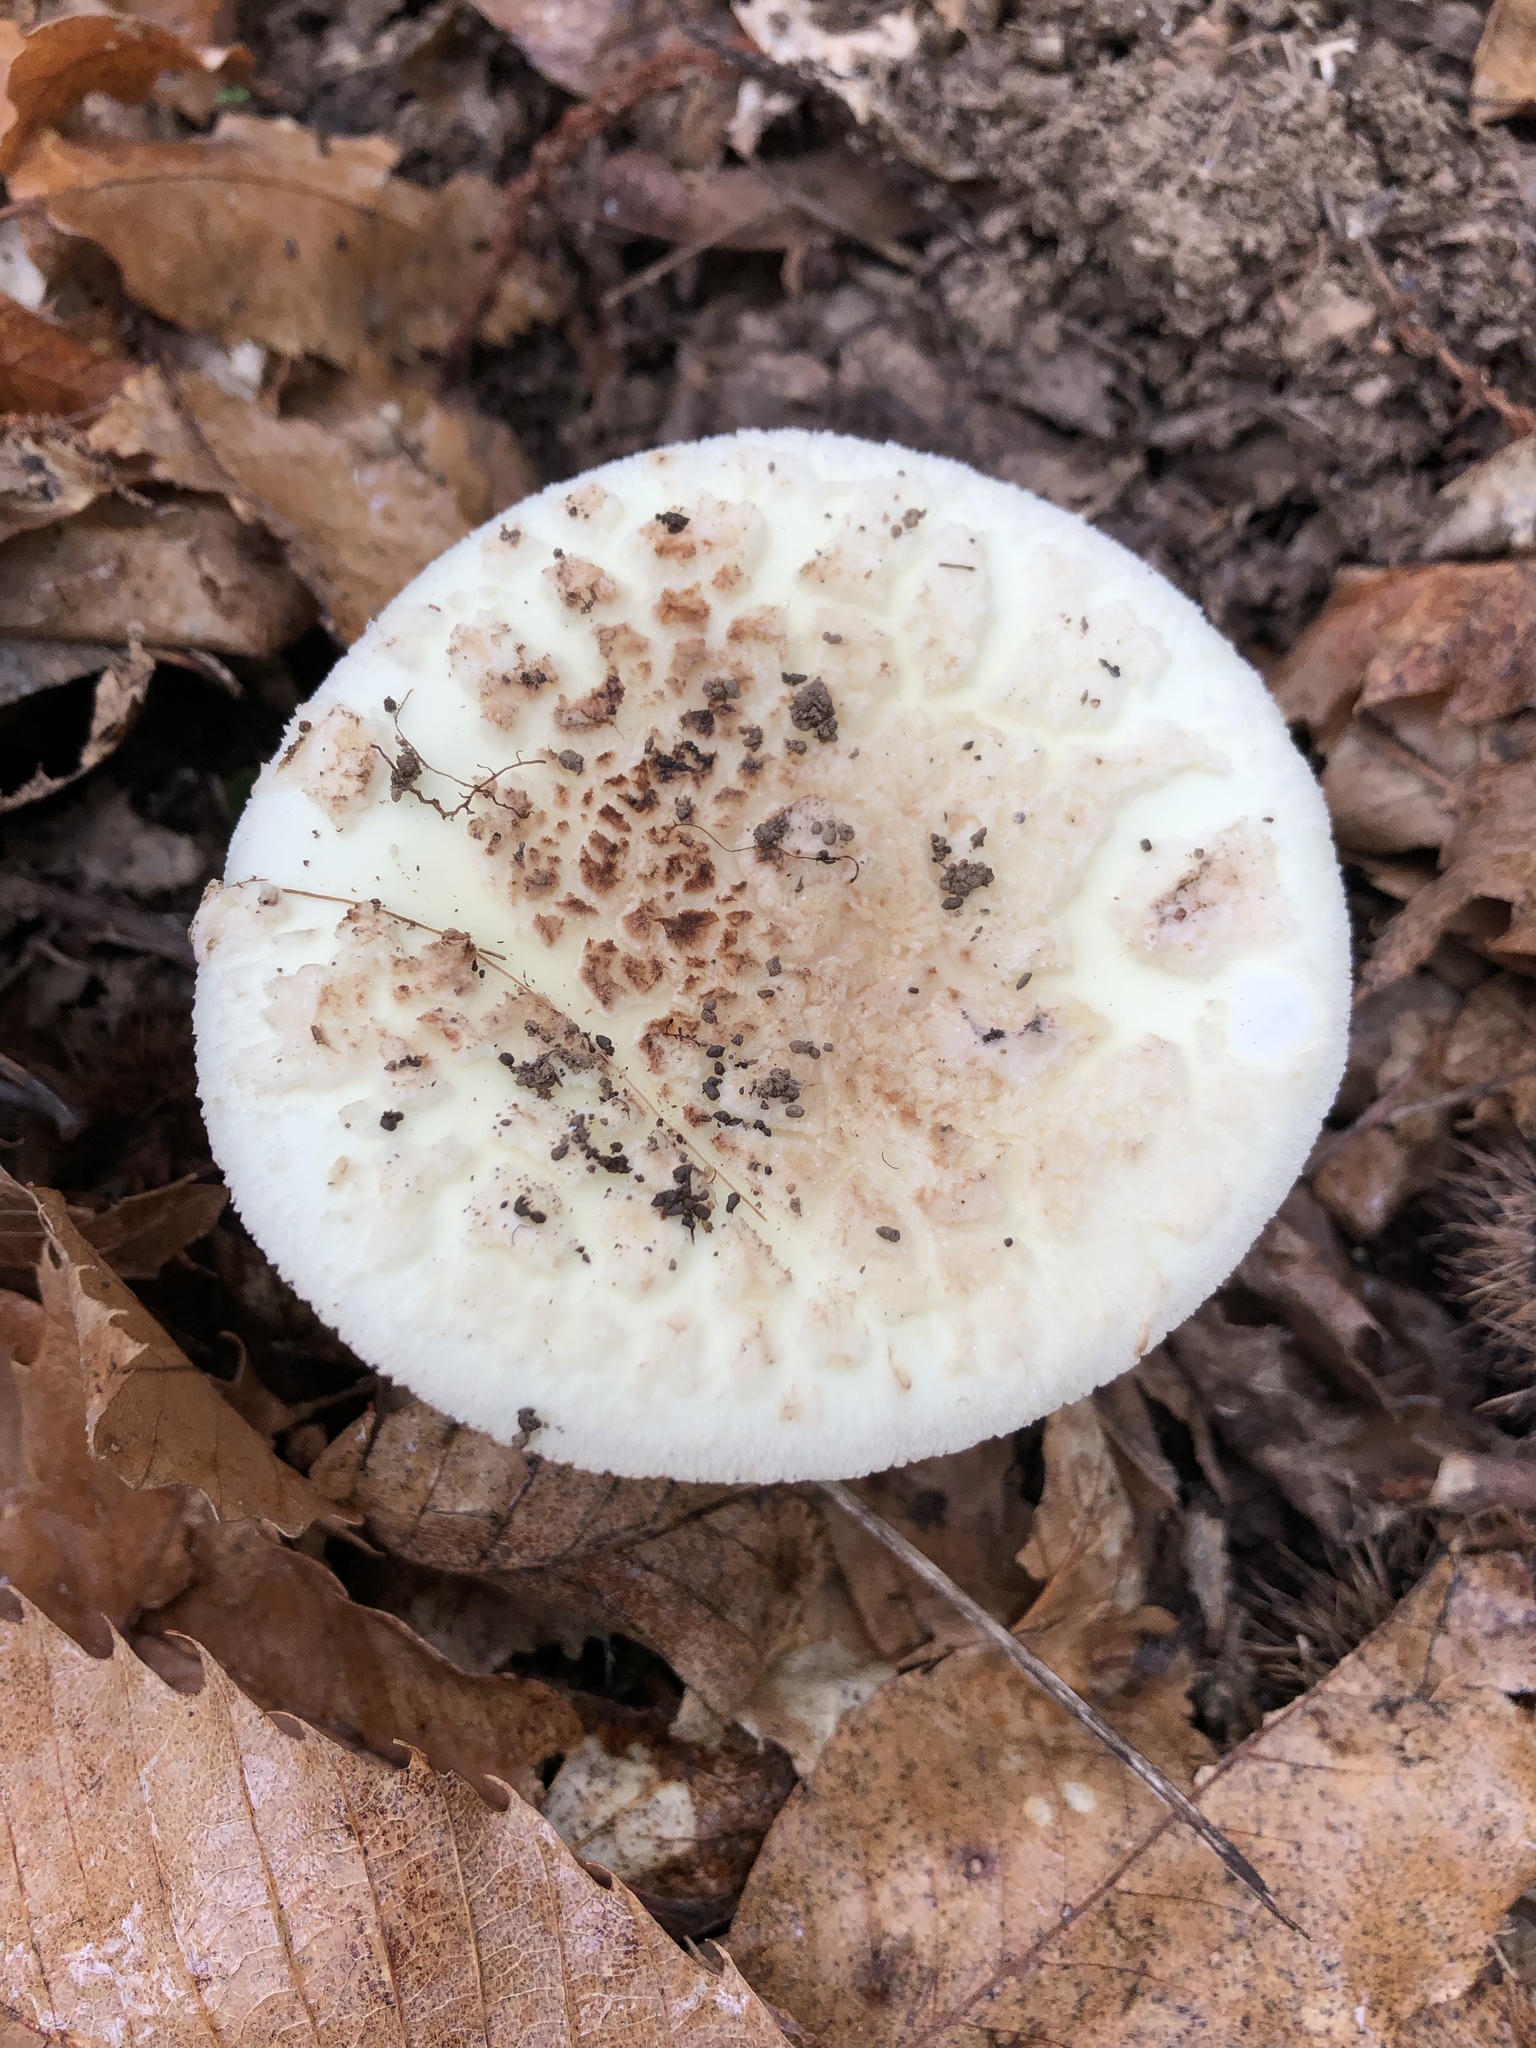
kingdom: Fungi
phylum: Basidiomycota
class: Agaricomycetes
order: Agaricales
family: Amanitaceae
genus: Amanita
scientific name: Amanita citrina
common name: False death-cap
